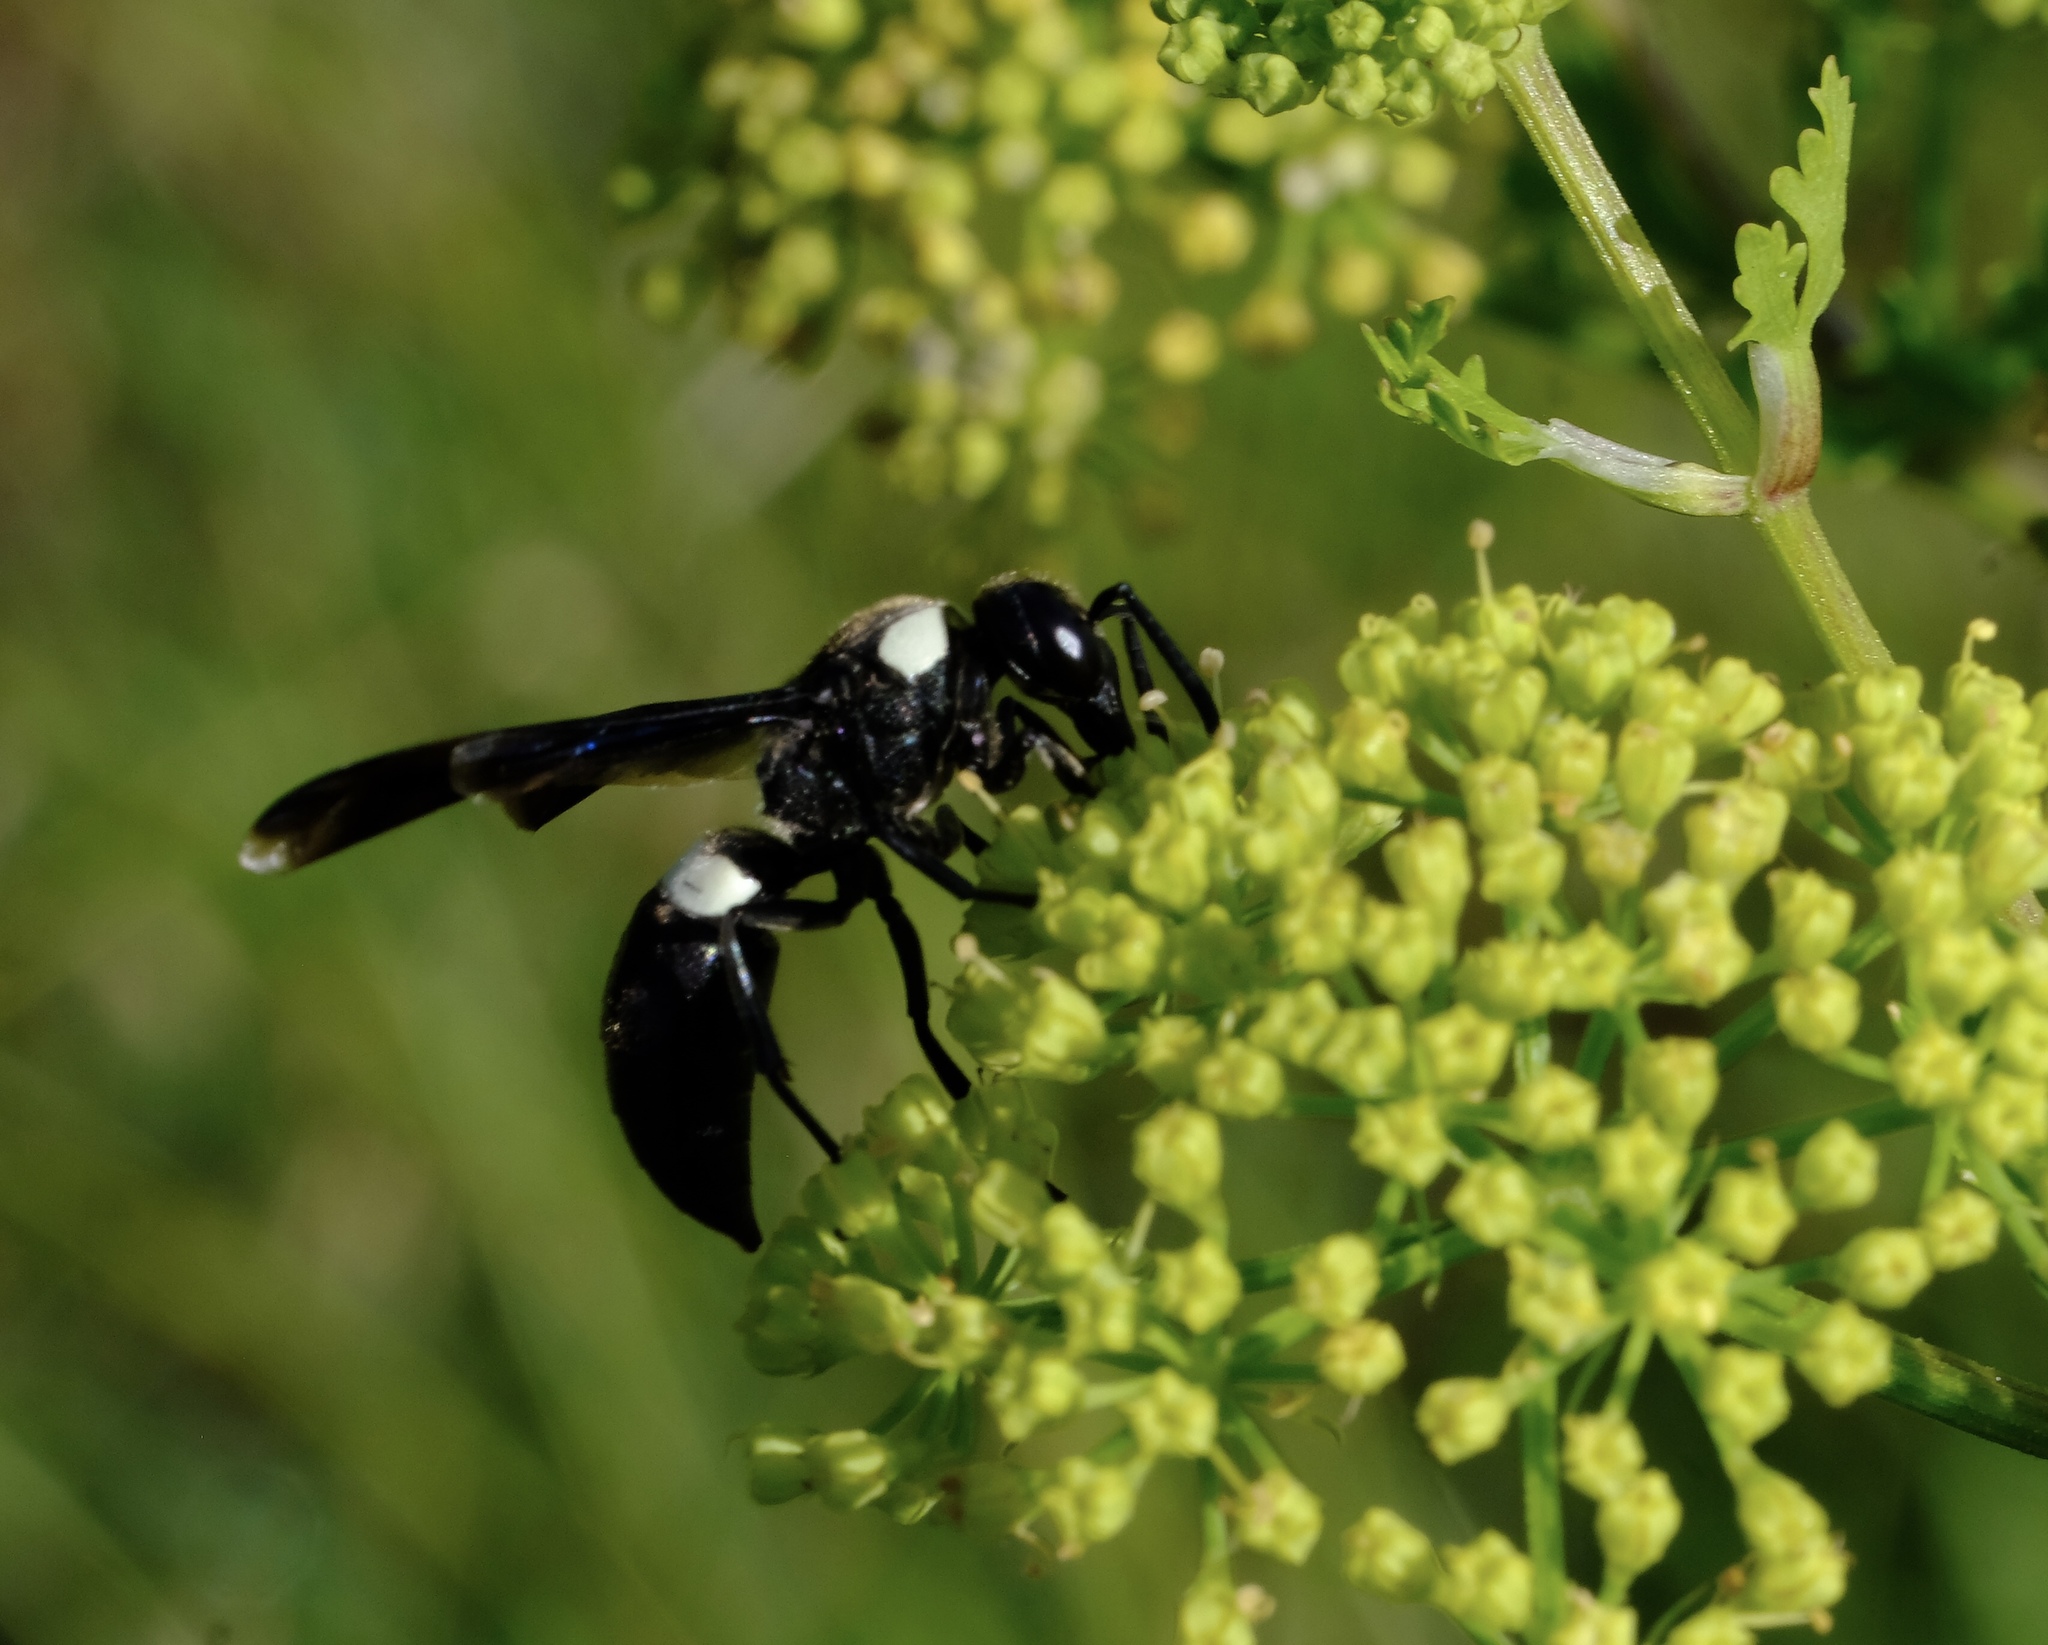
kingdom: Animalia
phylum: Arthropoda
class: Insecta
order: Hymenoptera
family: Eumenidae
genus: Monobia
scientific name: Monobia quadridens
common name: Four-toothed mason wasp
